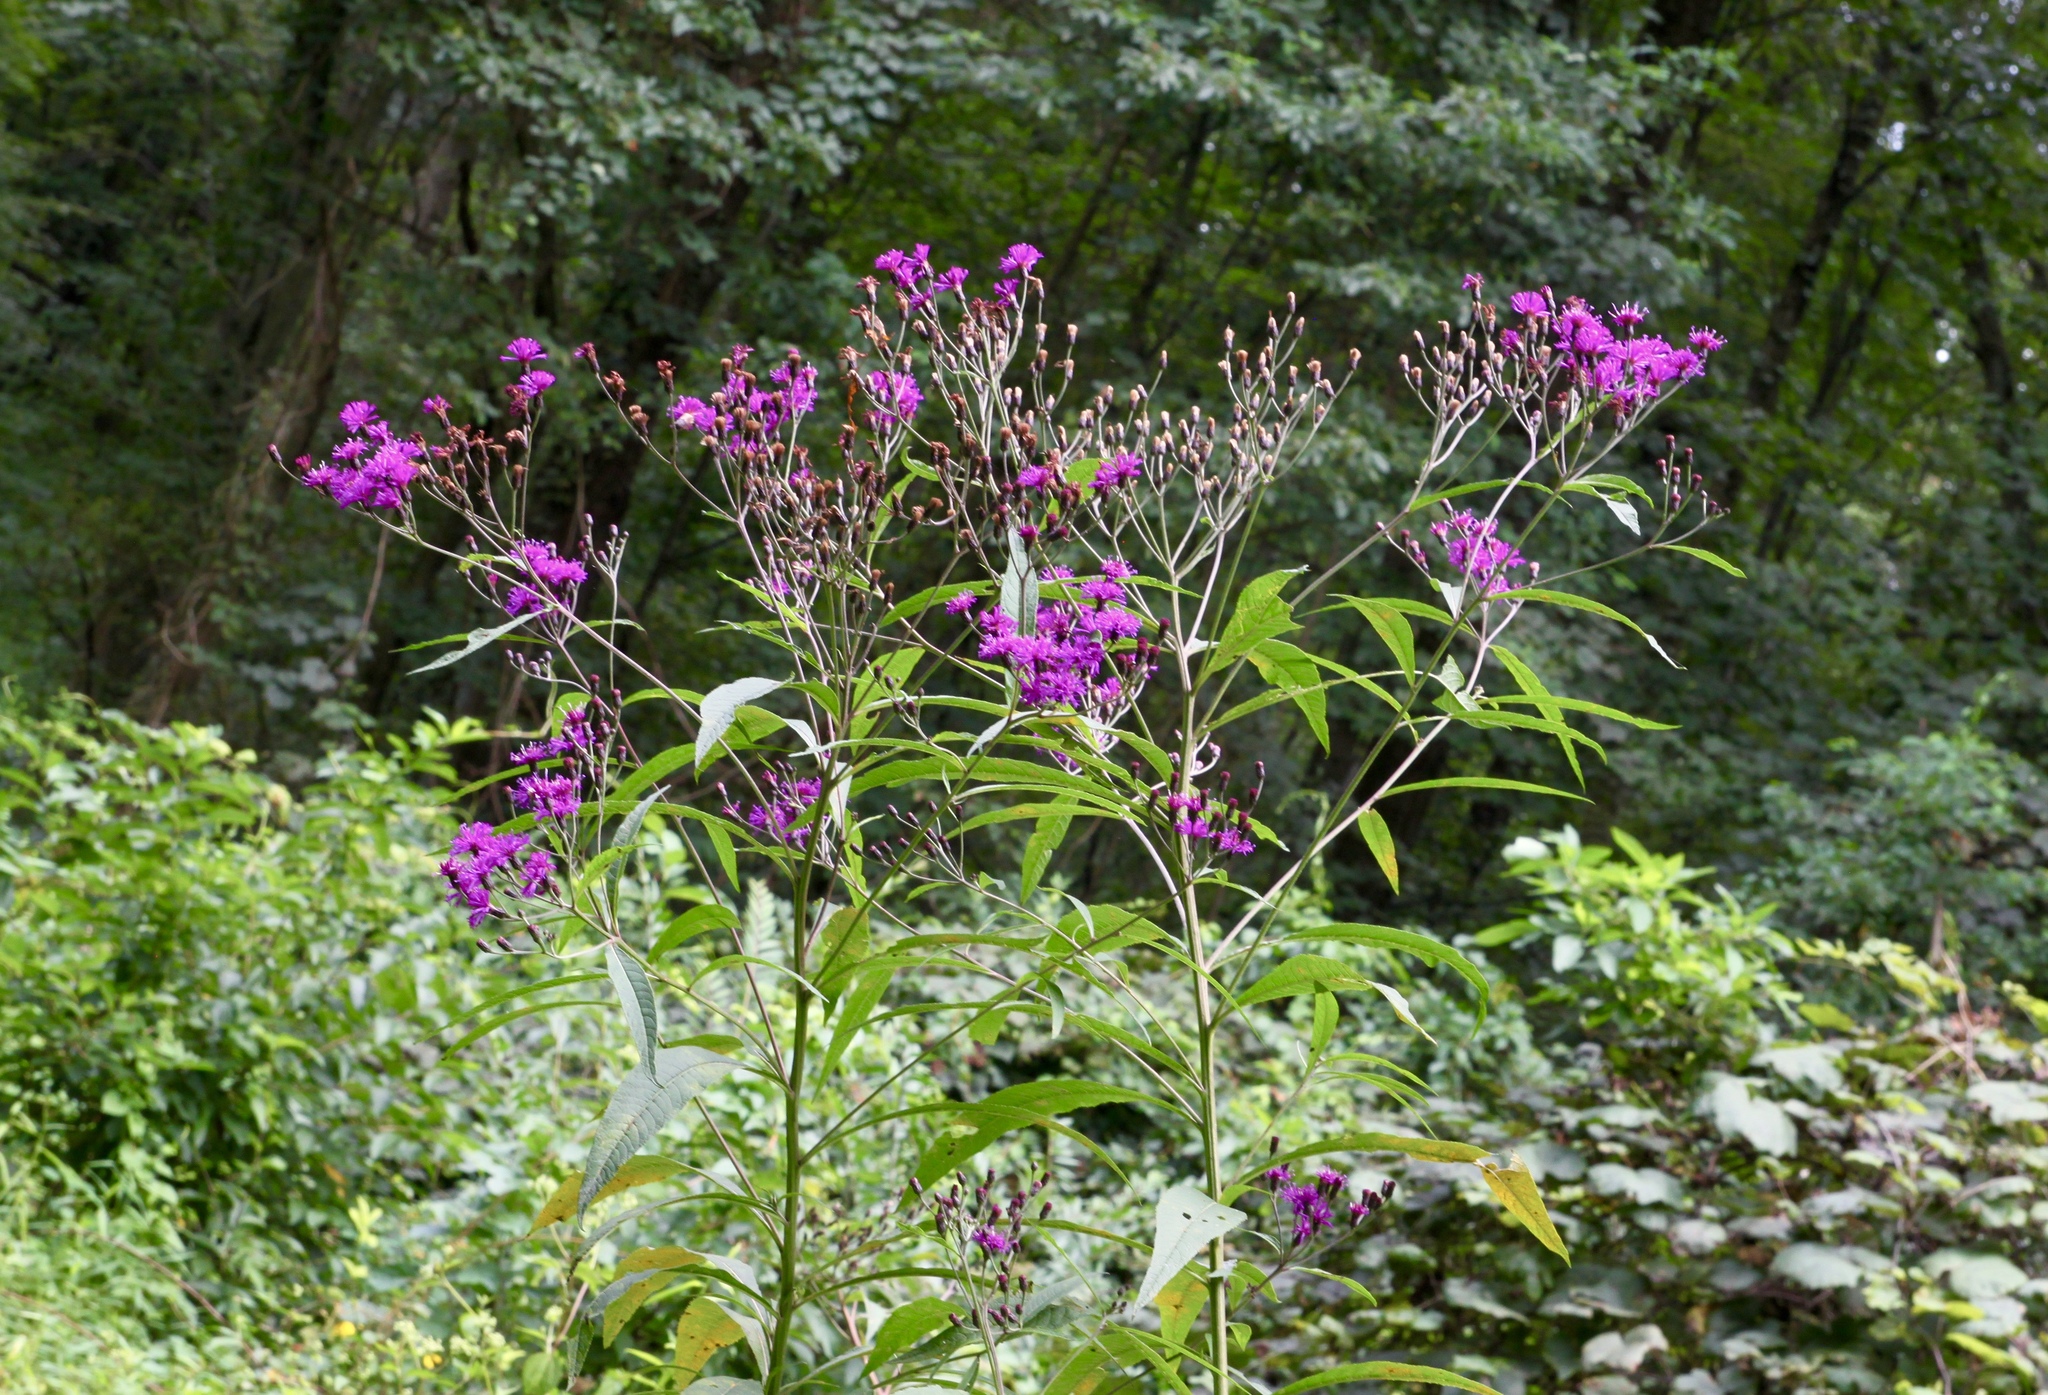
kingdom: Plantae
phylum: Tracheophyta
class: Magnoliopsida
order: Asterales
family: Asteraceae
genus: Vernonia
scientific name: Vernonia gigantea
